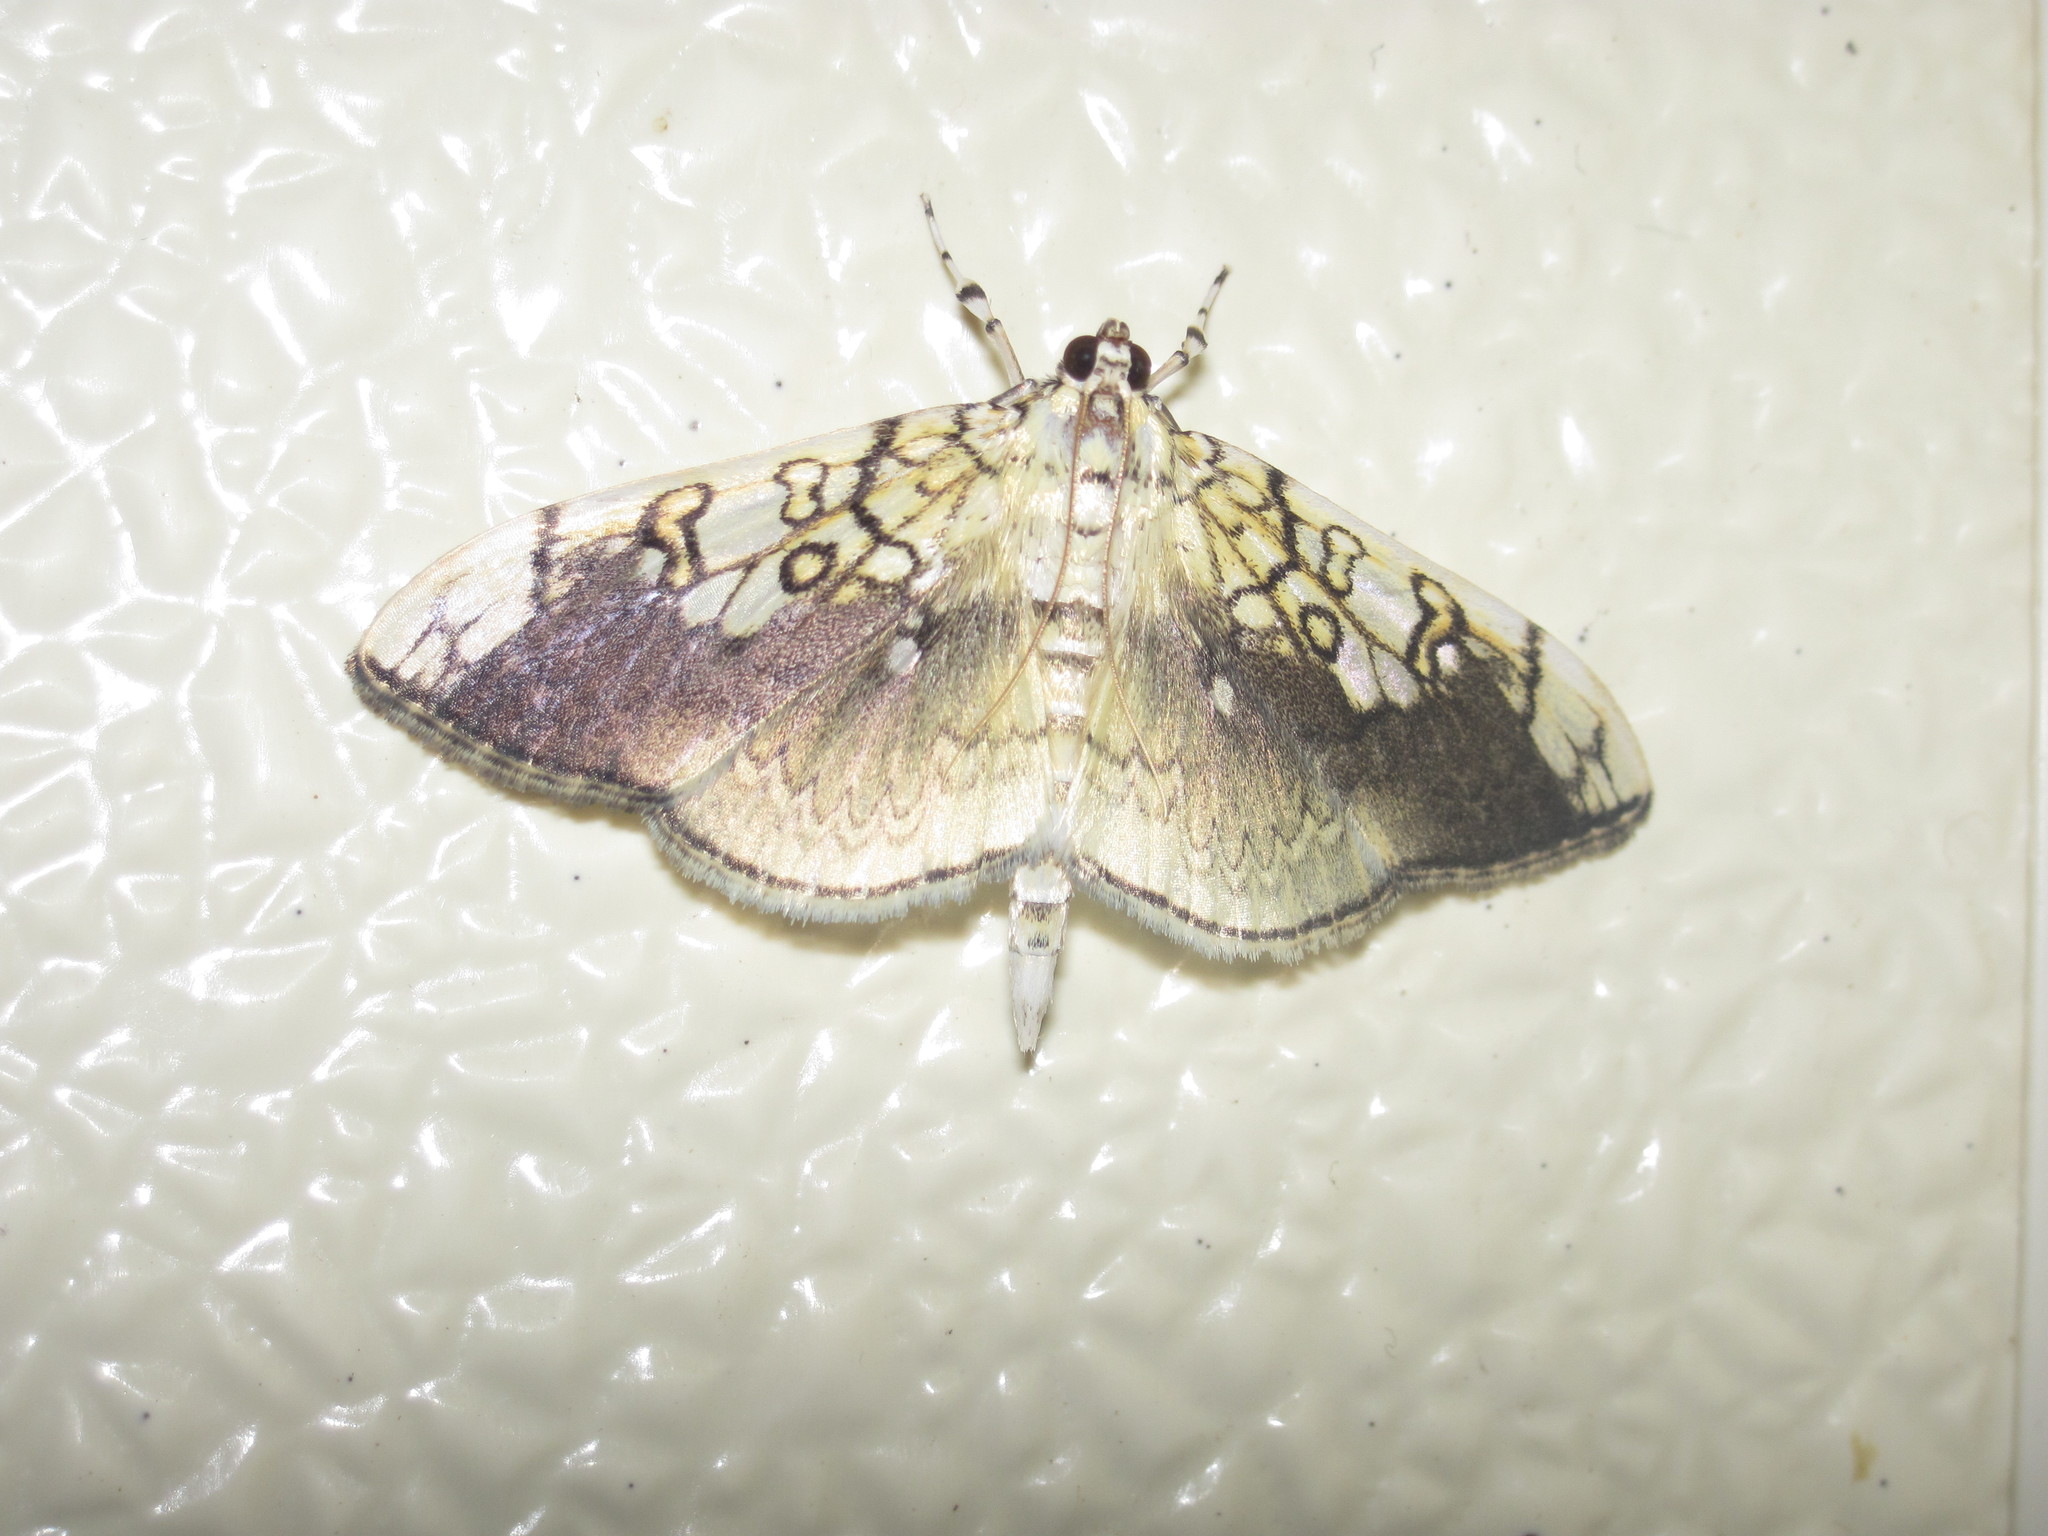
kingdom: Animalia
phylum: Arthropoda
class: Insecta
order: Lepidoptera
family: Crambidae
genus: Pantographa
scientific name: Pantographa limata
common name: Basswood leafroller moth
